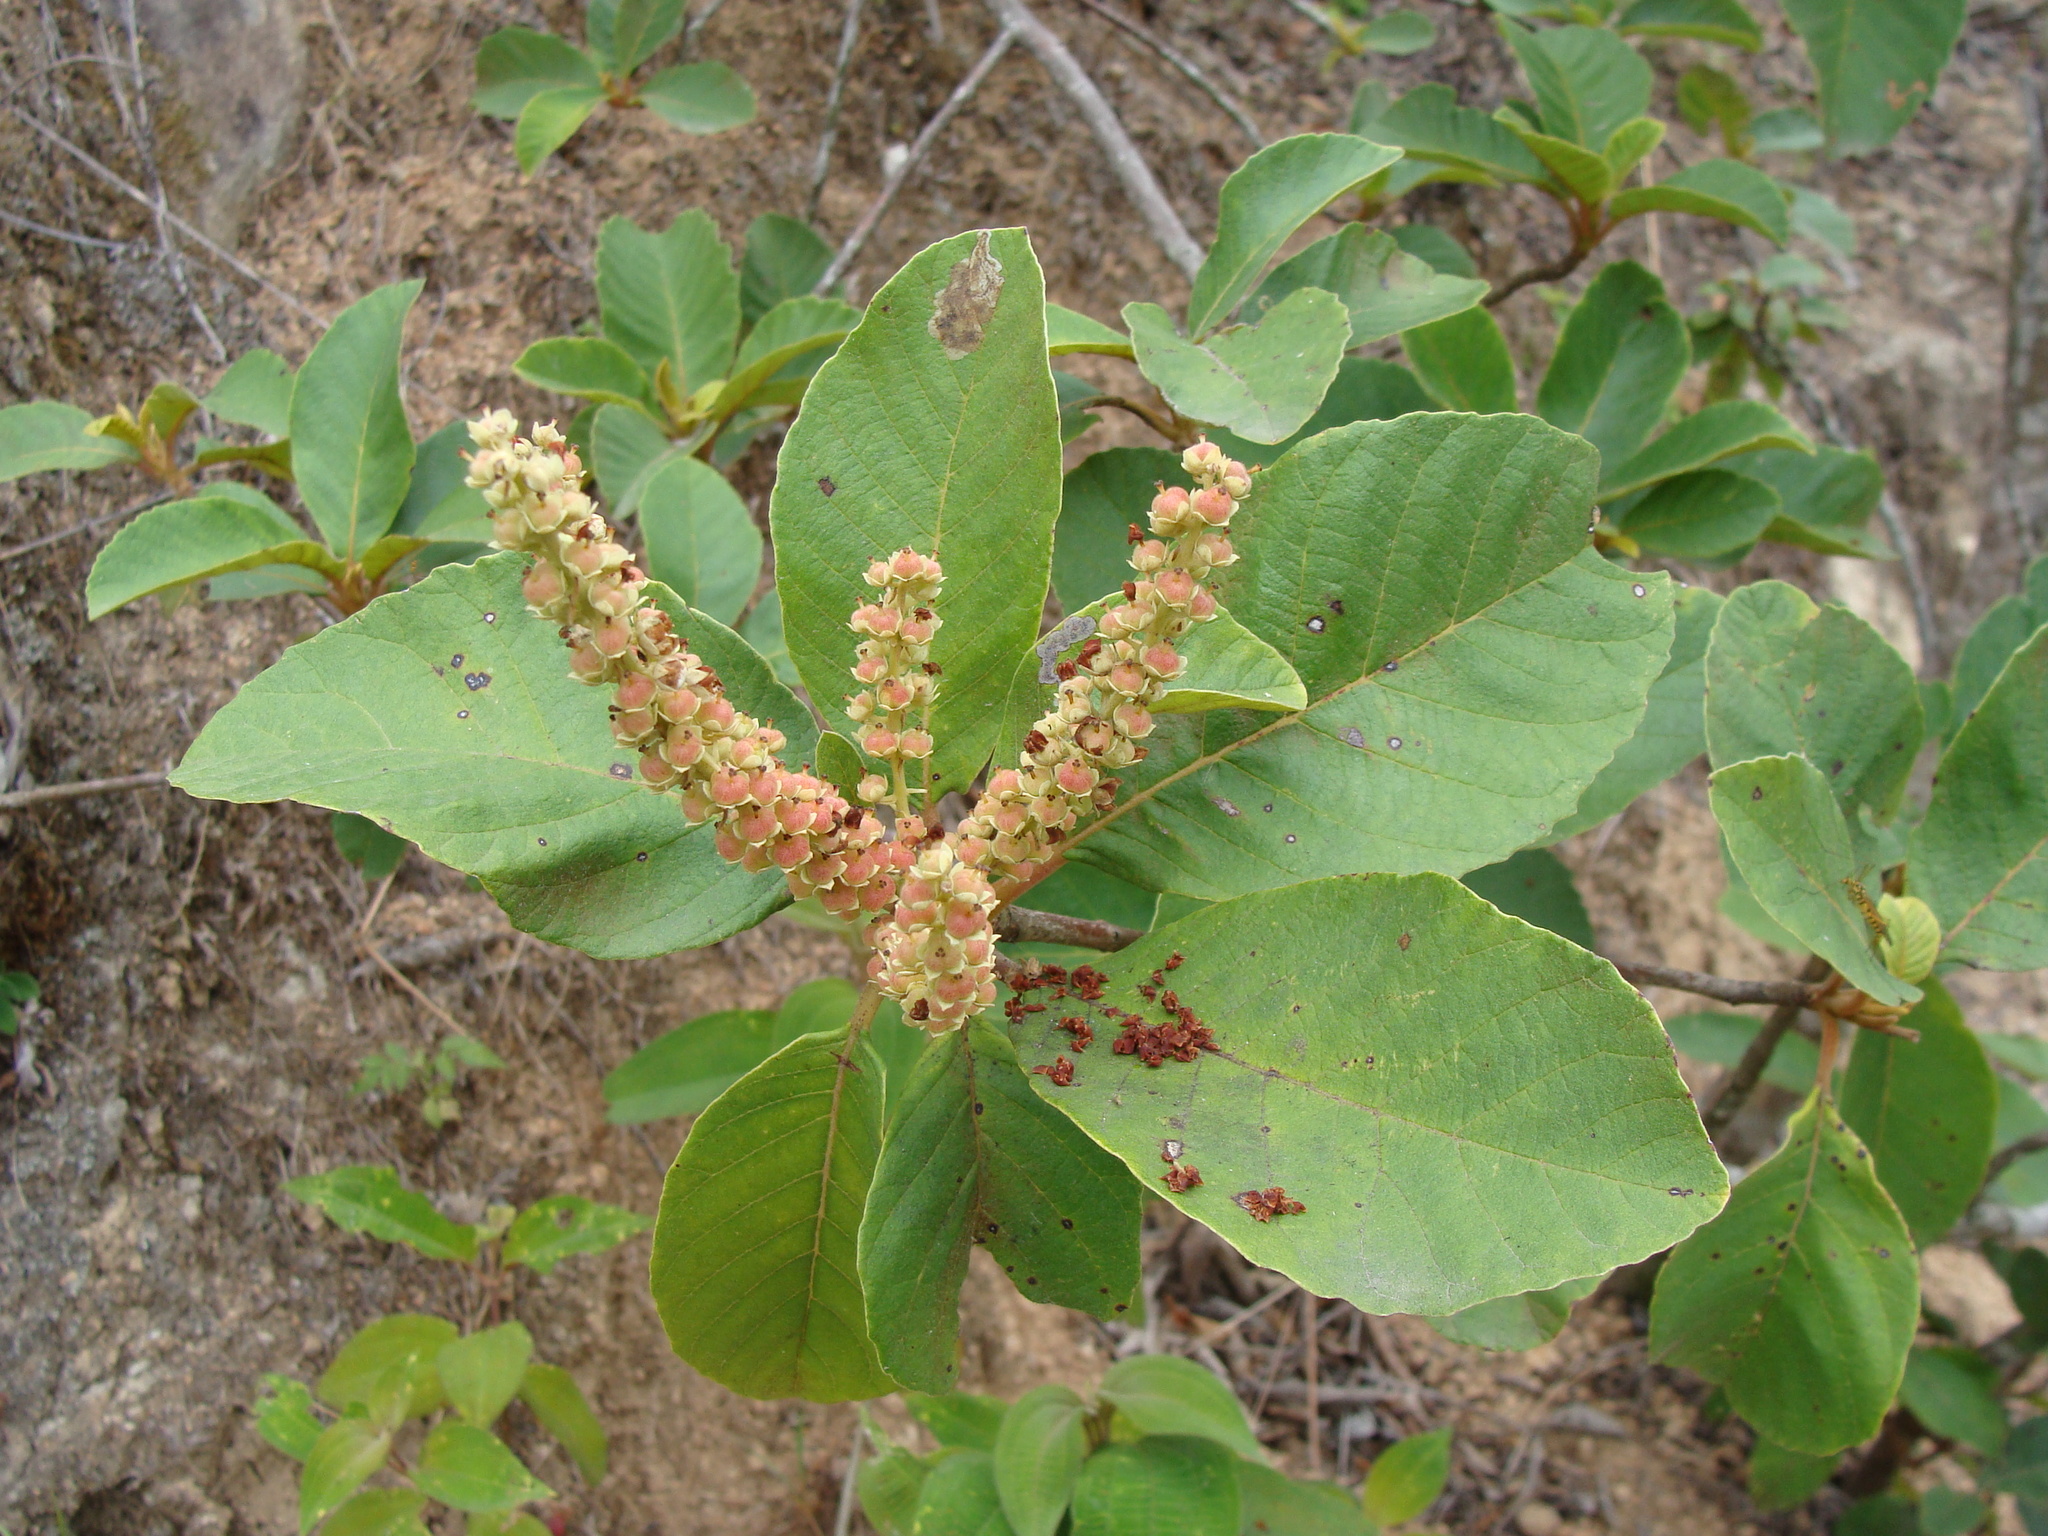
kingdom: Plantae
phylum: Tracheophyta
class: Magnoliopsida
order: Ericales
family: Clethraceae
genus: Clethra
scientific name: Clethra mexicana
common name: Nance macho
